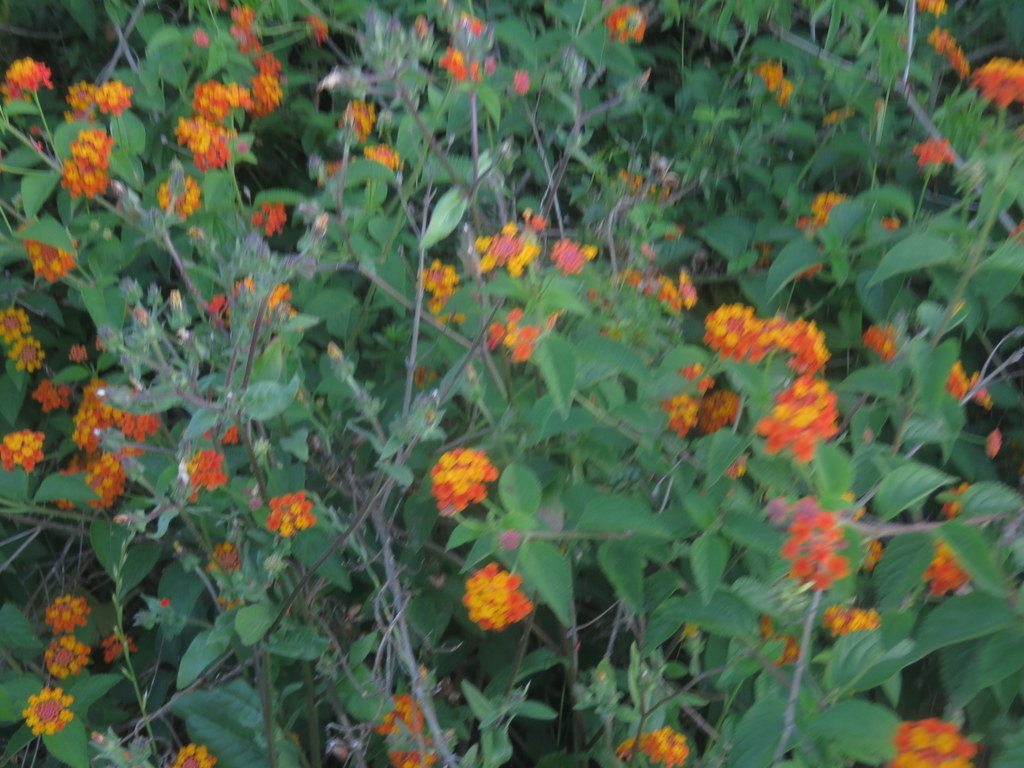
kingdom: Plantae
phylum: Tracheophyta
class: Magnoliopsida
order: Lamiales
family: Verbenaceae
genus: Lantana
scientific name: Lantana camara
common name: Lantana
